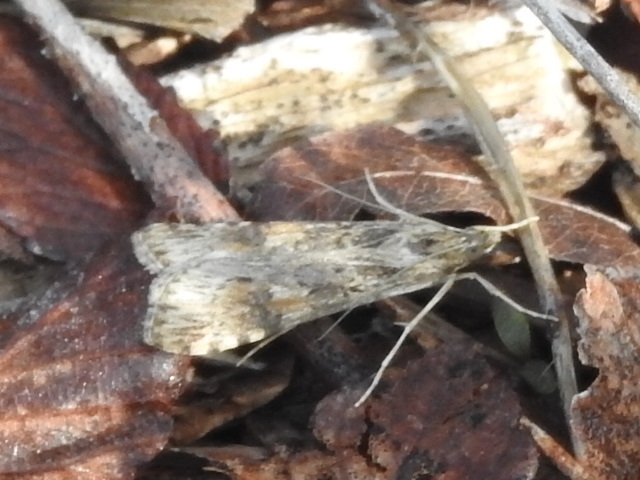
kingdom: Animalia
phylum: Arthropoda
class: Insecta
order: Lepidoptera
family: Crambidae
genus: Nomophila
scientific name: Nomophila nearctica
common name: American rush veneer
